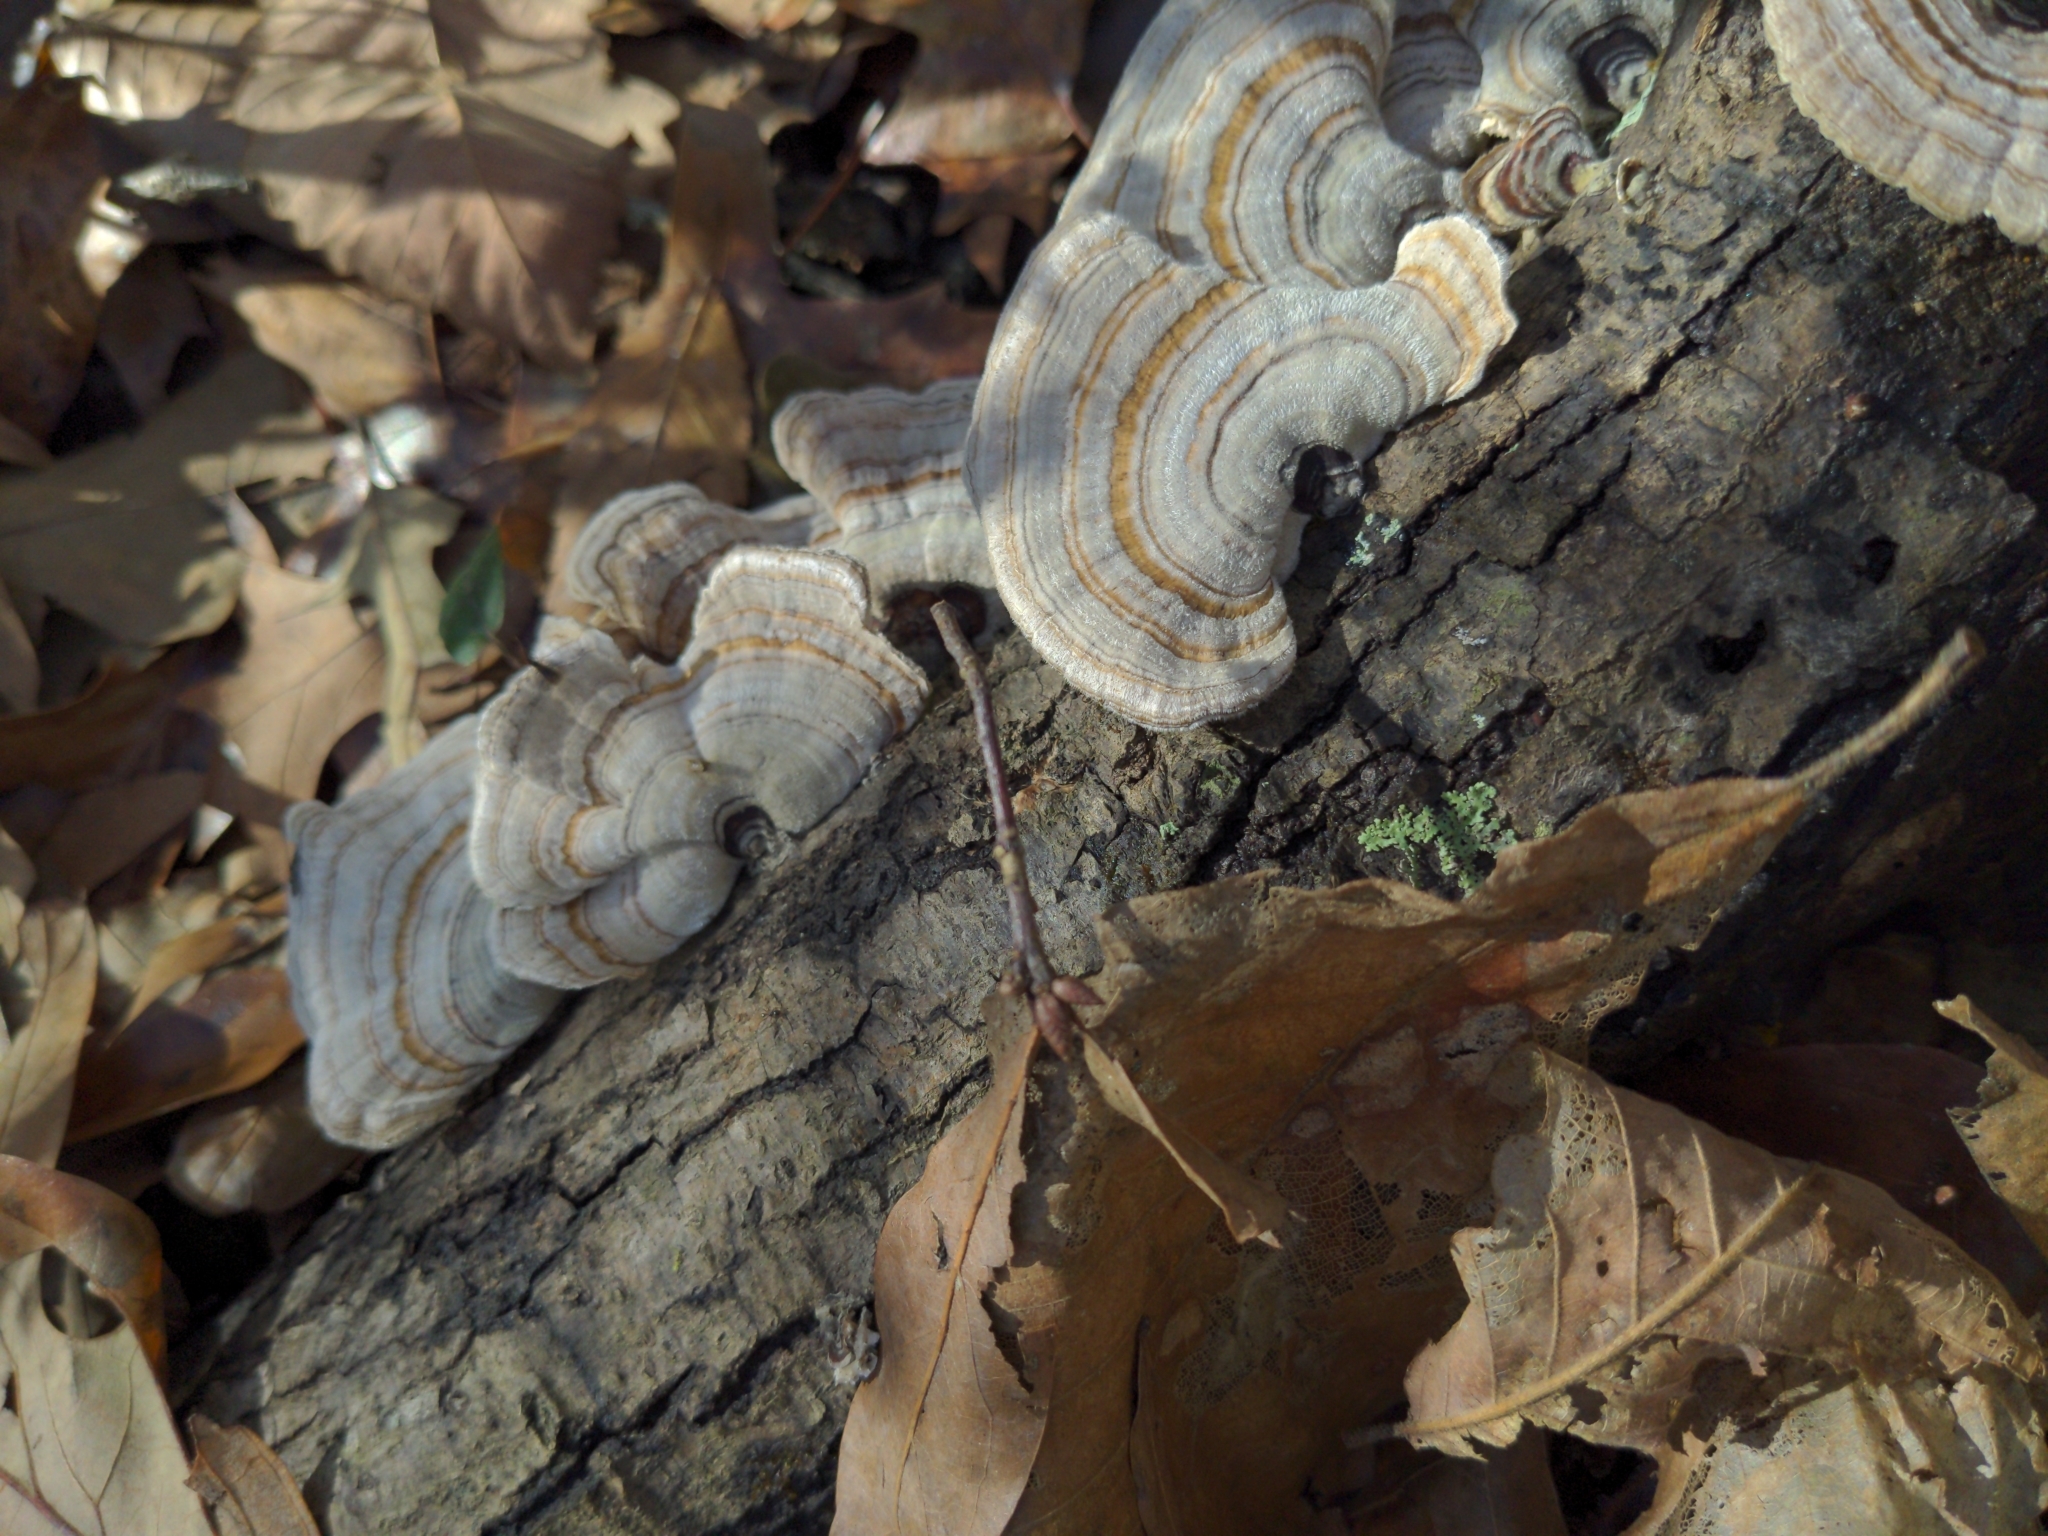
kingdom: Fungi
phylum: Basidiomycota
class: Agaricomycetes
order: Polyporales
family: Polyporaceae
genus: Trametes
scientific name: Trametes versicolor
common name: Turkeytail
